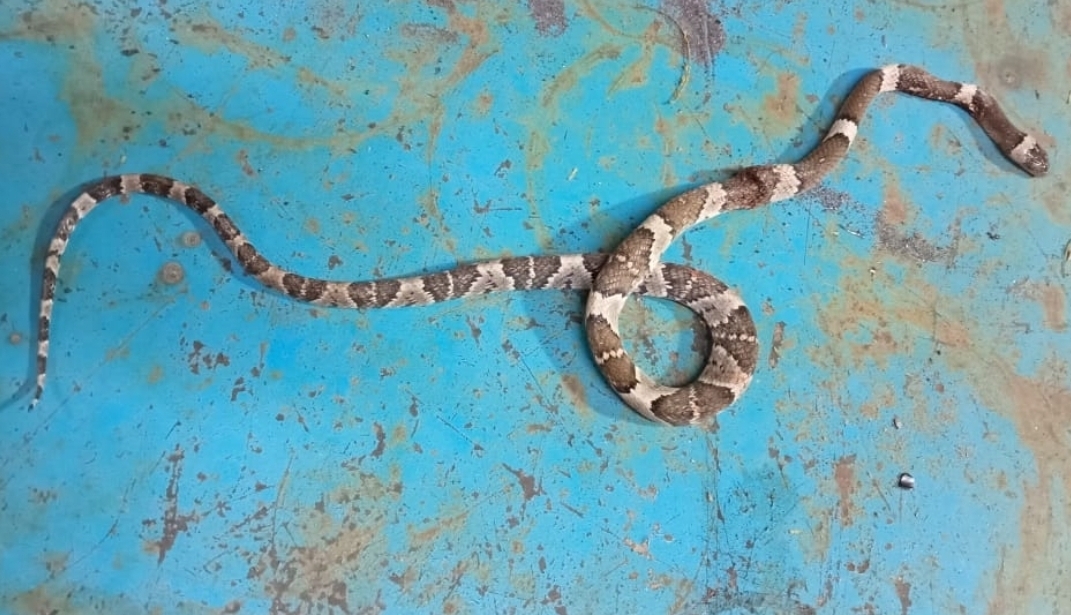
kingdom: Animalia
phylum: Chordata
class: Squamata
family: Colubridae
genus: Trimorphodon
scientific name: Trimorphodon tau
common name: Mexican lyre snake
